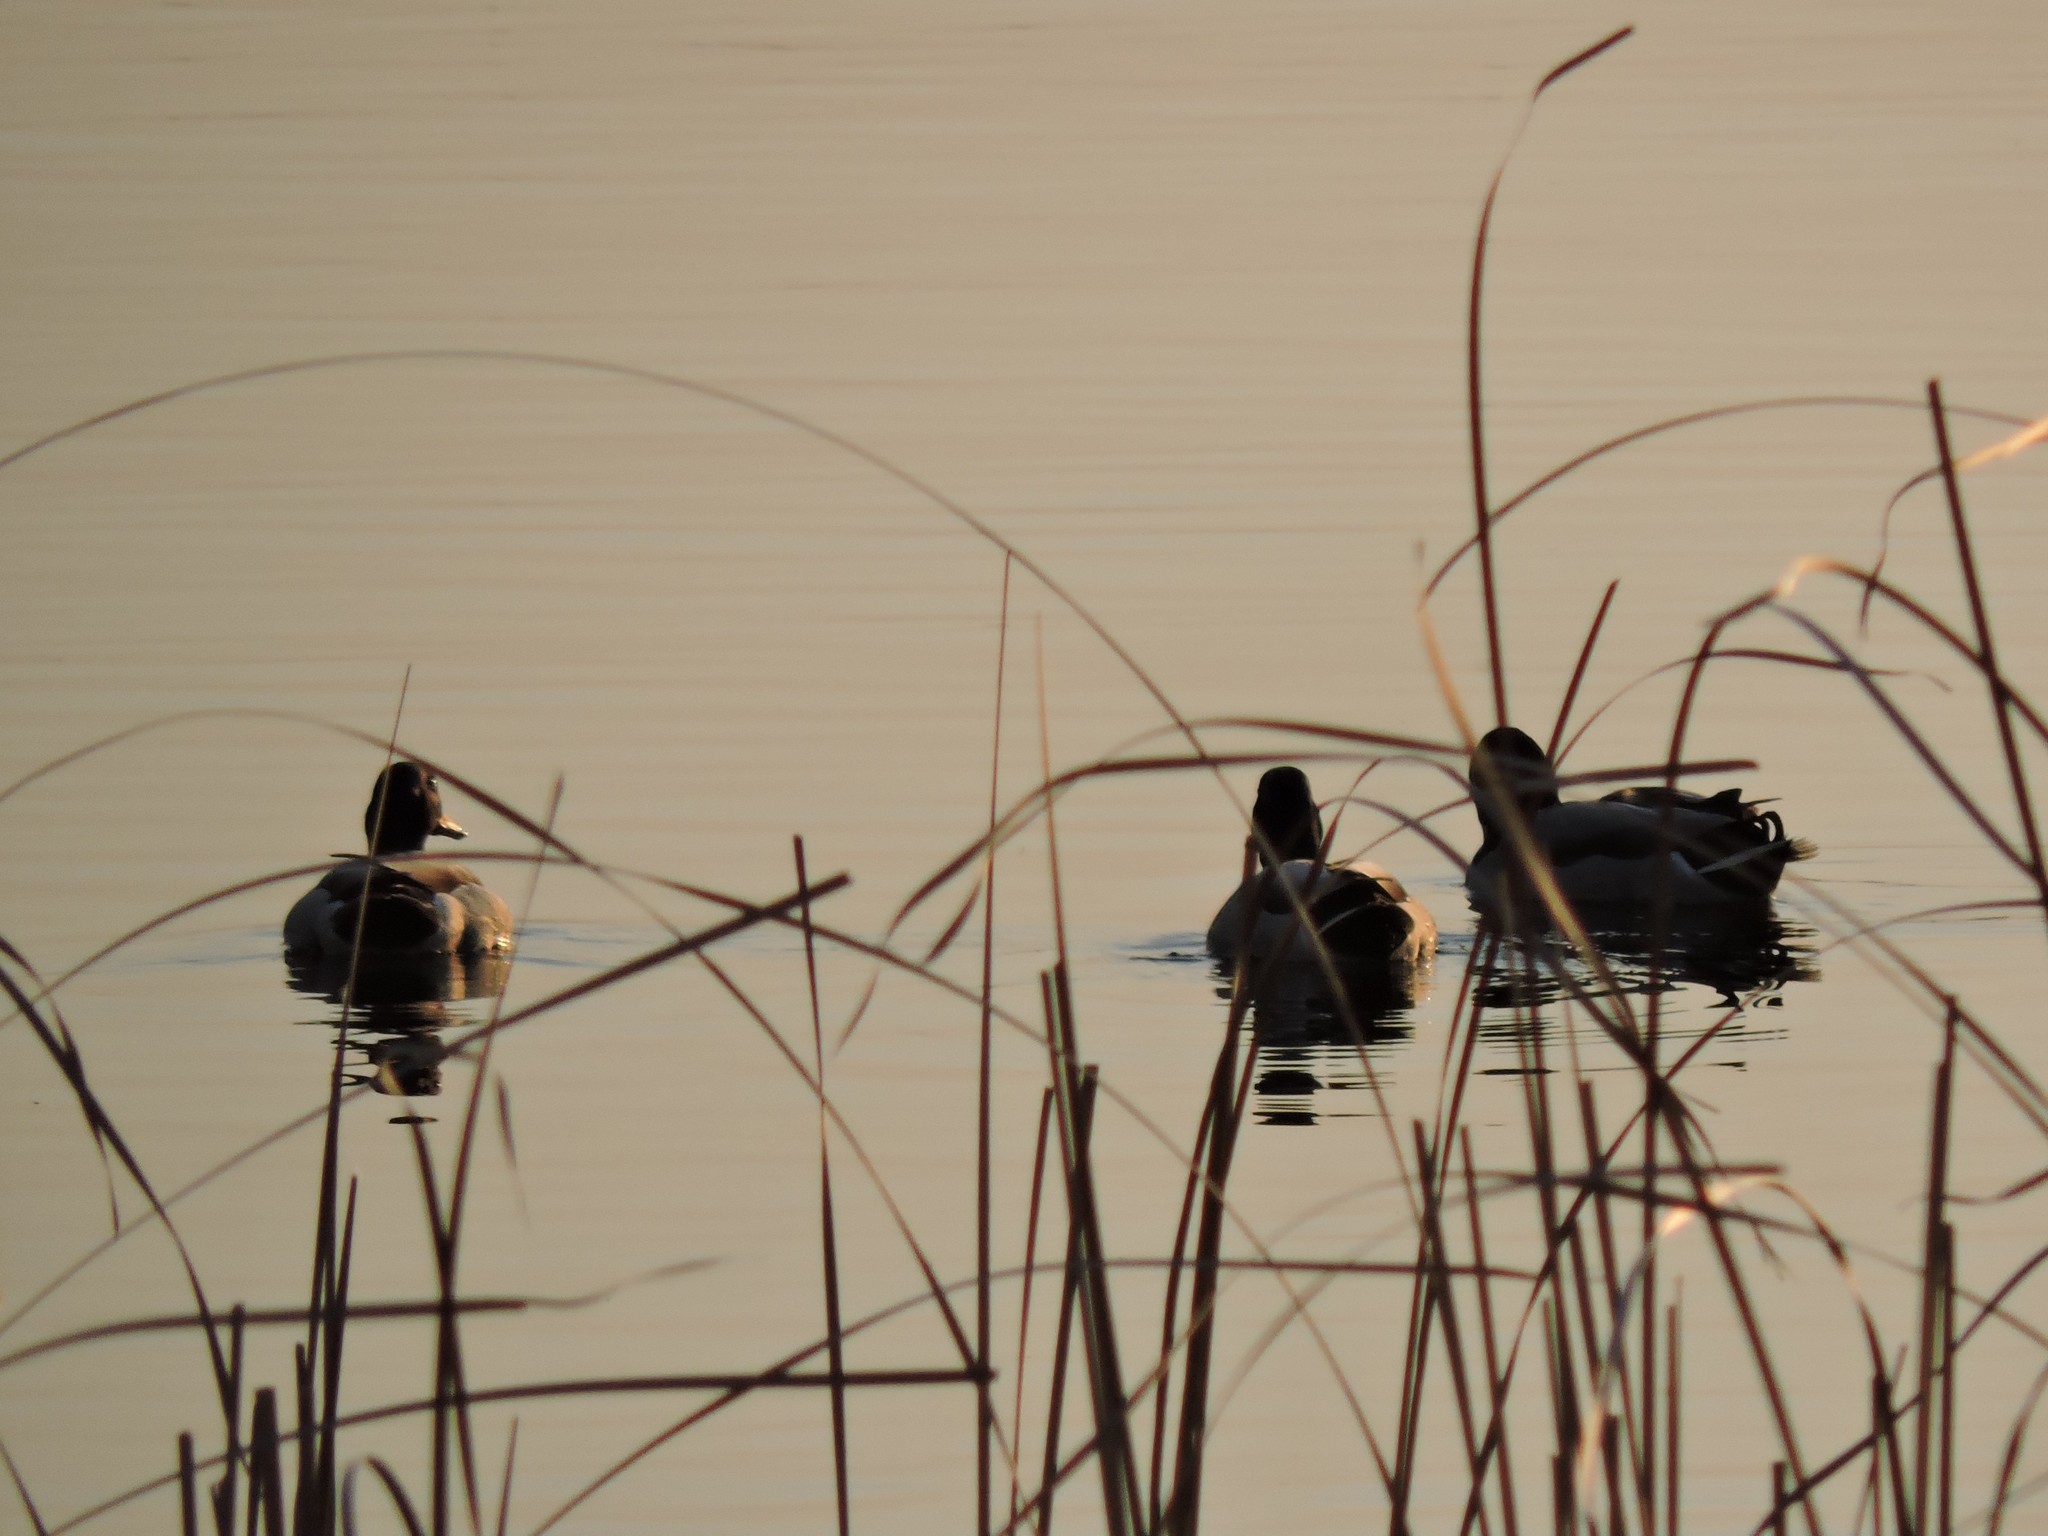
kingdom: Animalia
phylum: Chordata
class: Aves
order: Anseriformes
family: Anatidae
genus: Anas
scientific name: Anas platyrhynchos
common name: Mallard
